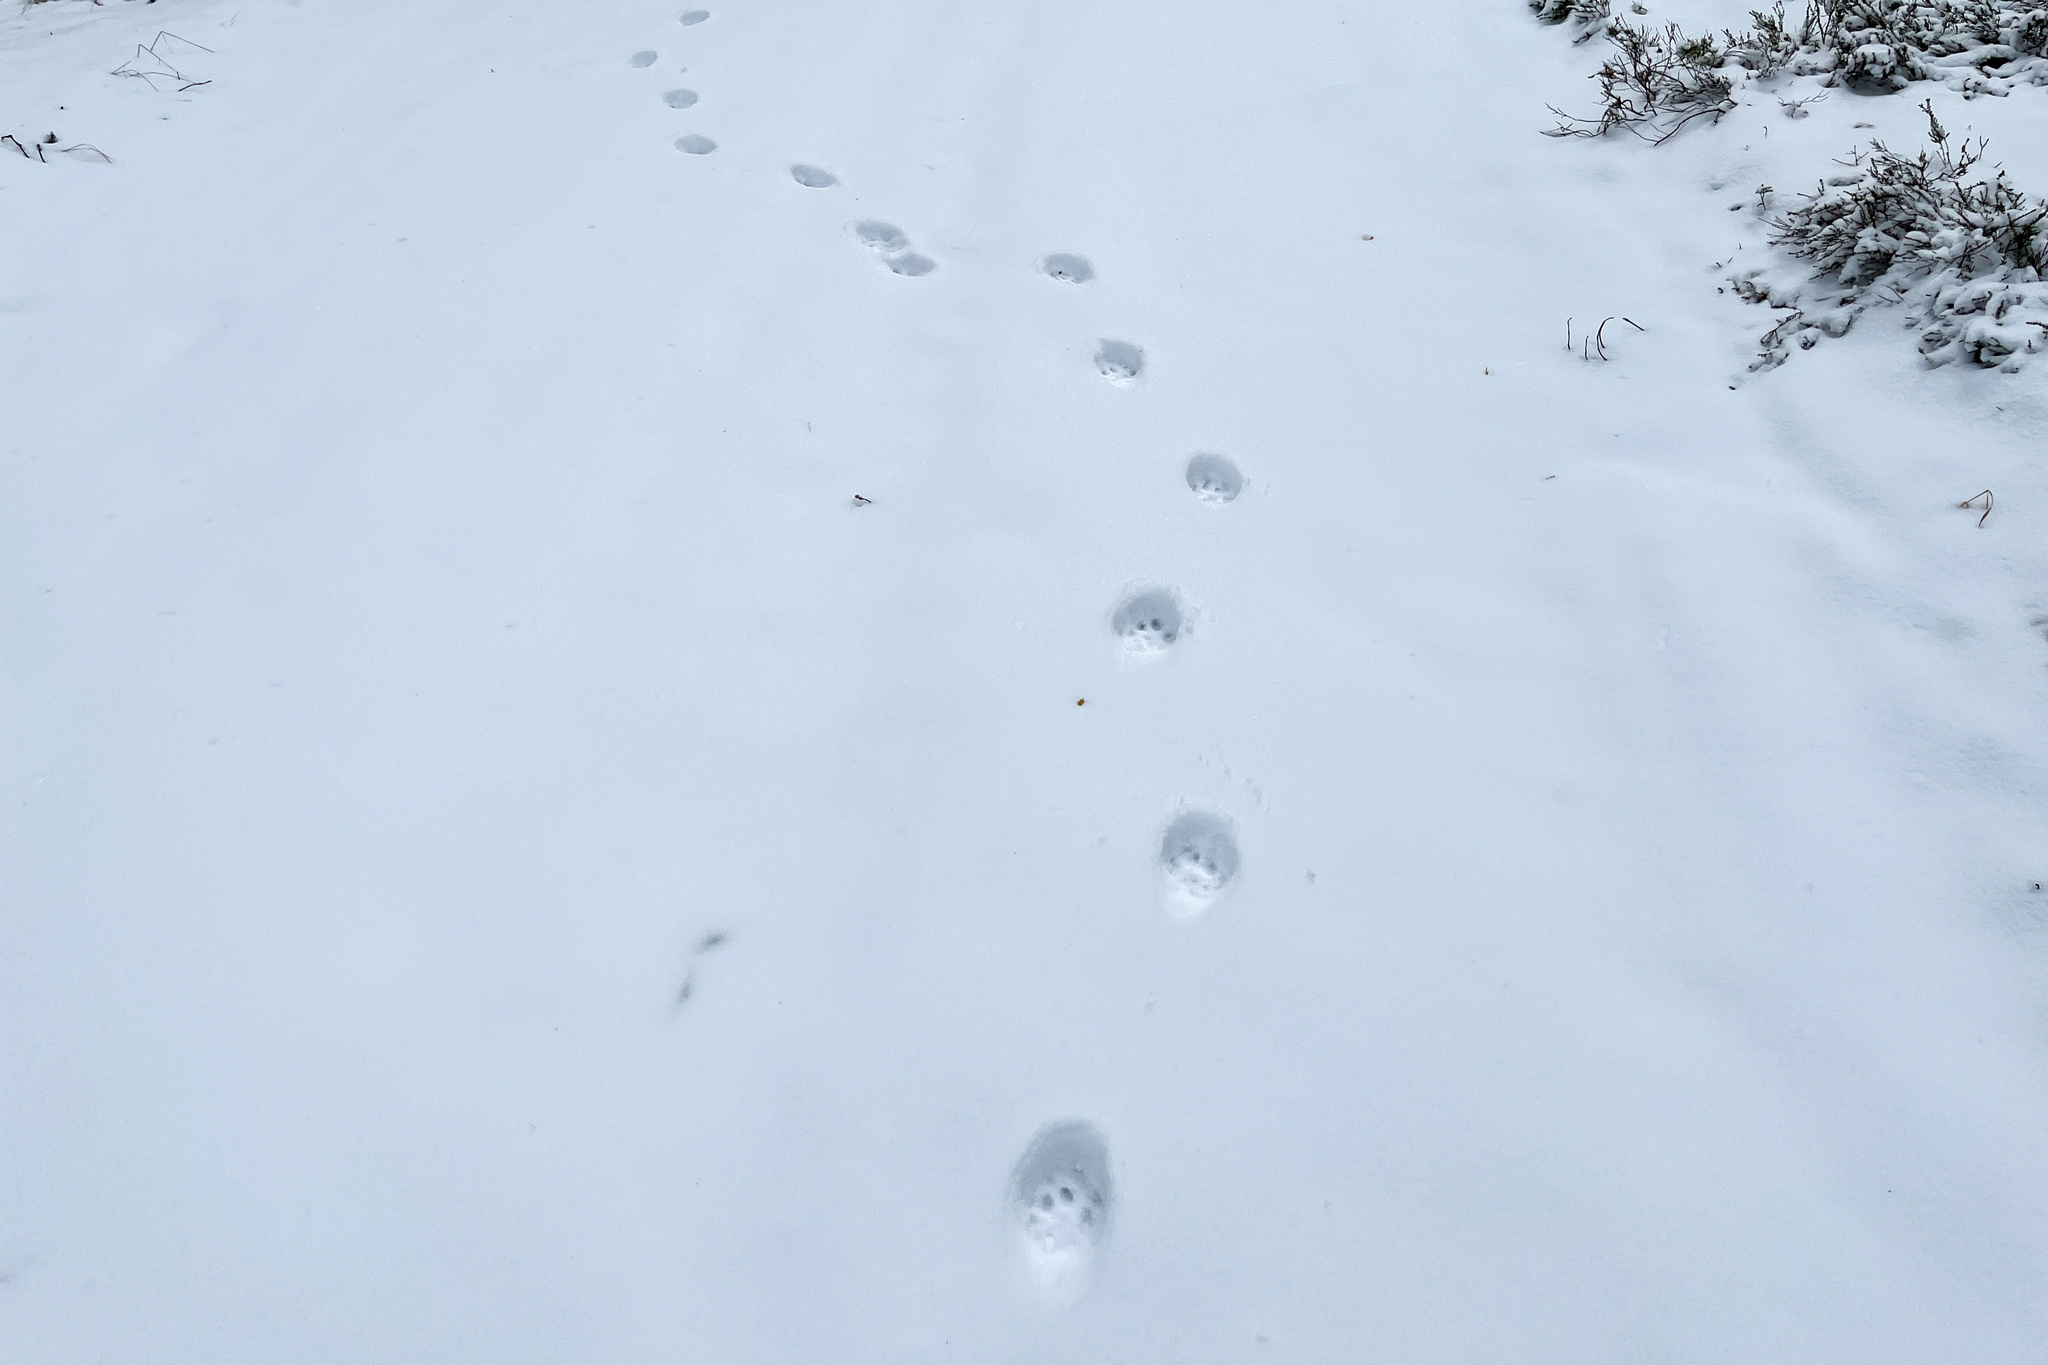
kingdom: Animalia
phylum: Chordata
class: Mammalia
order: Carnivora
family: Felidae
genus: Lynx
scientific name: Lynx lynx
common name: Eurasian lynx
